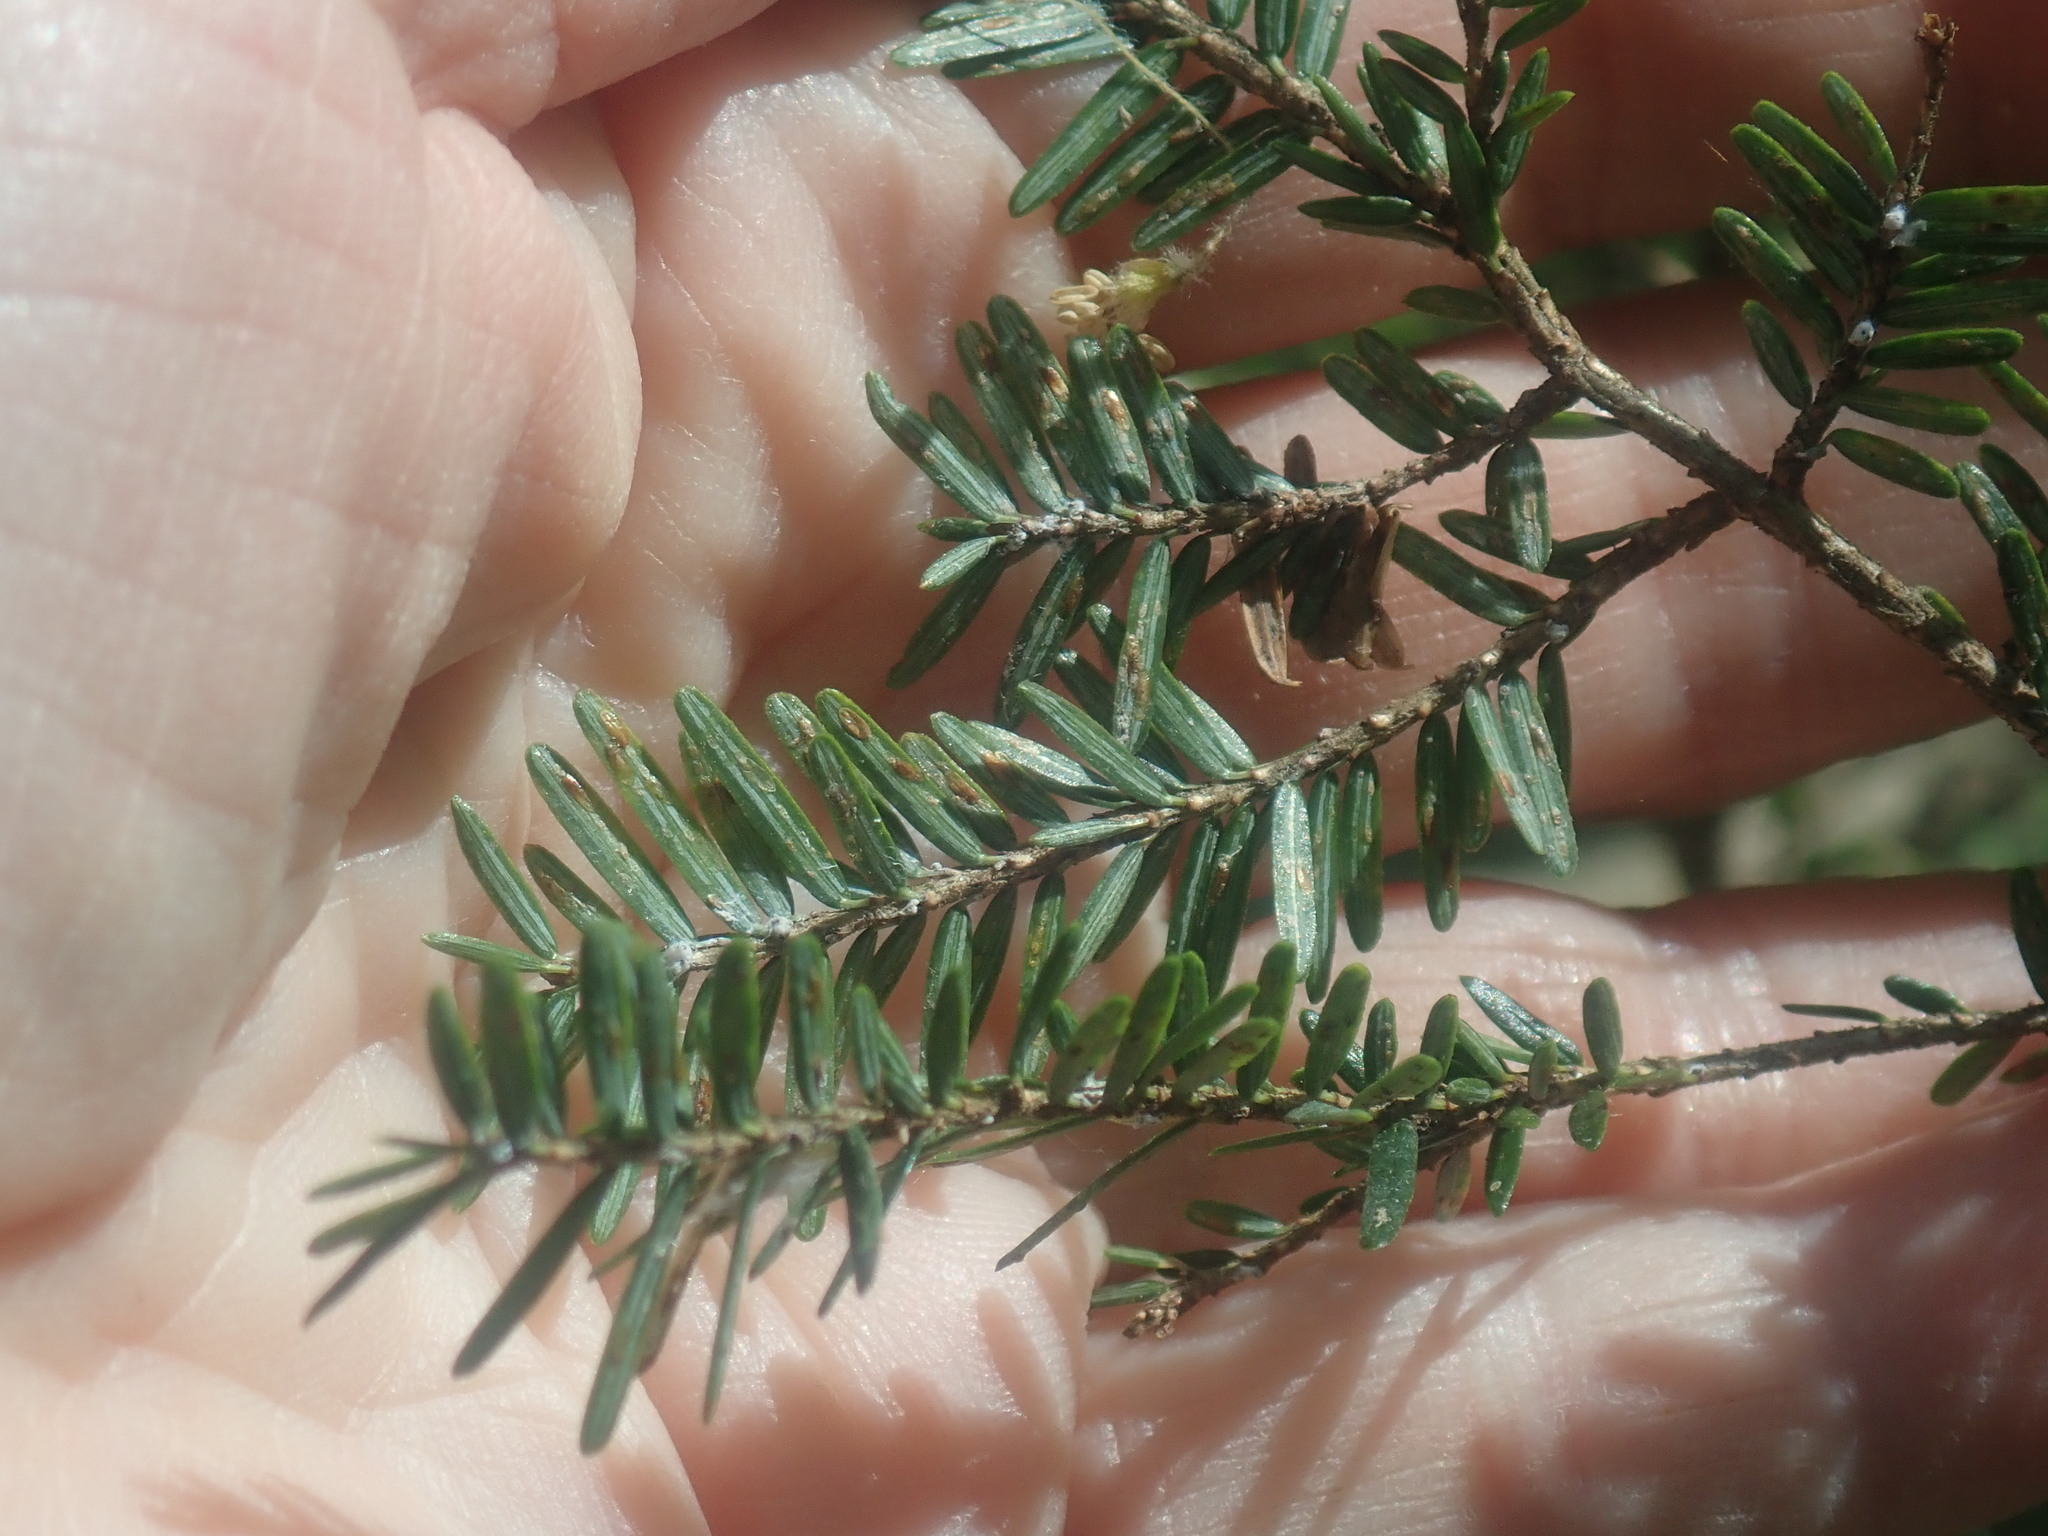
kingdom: Plantae
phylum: Tracheophyta
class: Pinopsida
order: Pinales
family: Pinaceae
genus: Tsuga
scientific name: Tsuga canadensis
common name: Eastern hemlock
